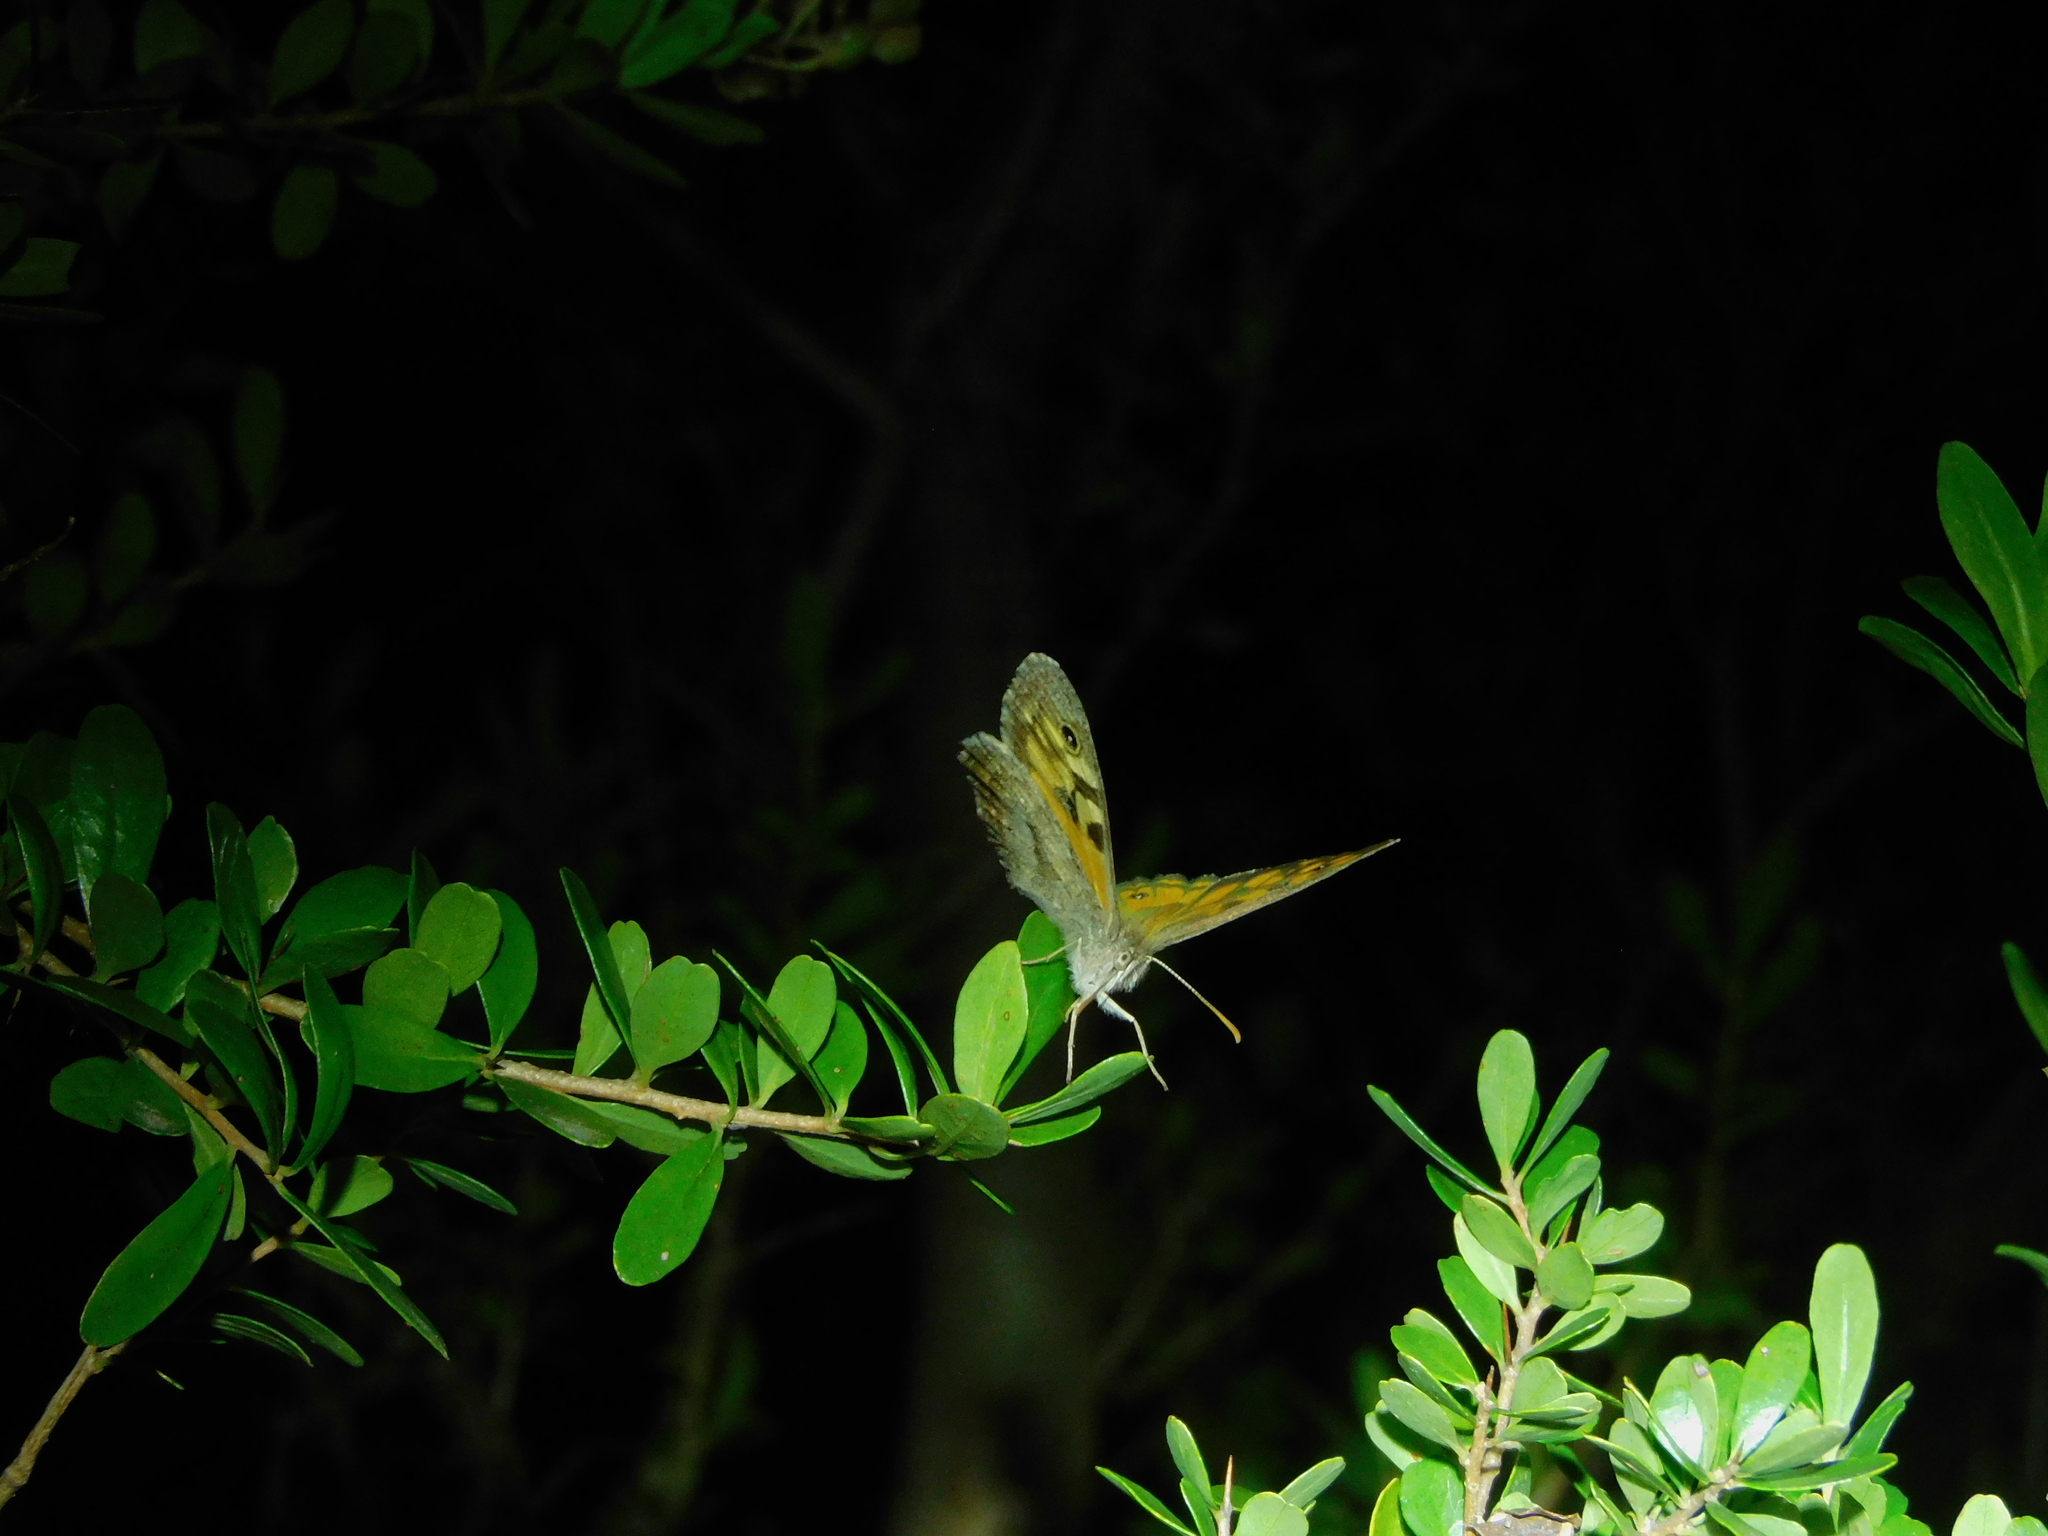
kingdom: Animalia
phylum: Arthropoda
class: Insecta
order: Lepidoptera
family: Nymphalidae
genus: Geitoneura
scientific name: Geitoneura klugii
